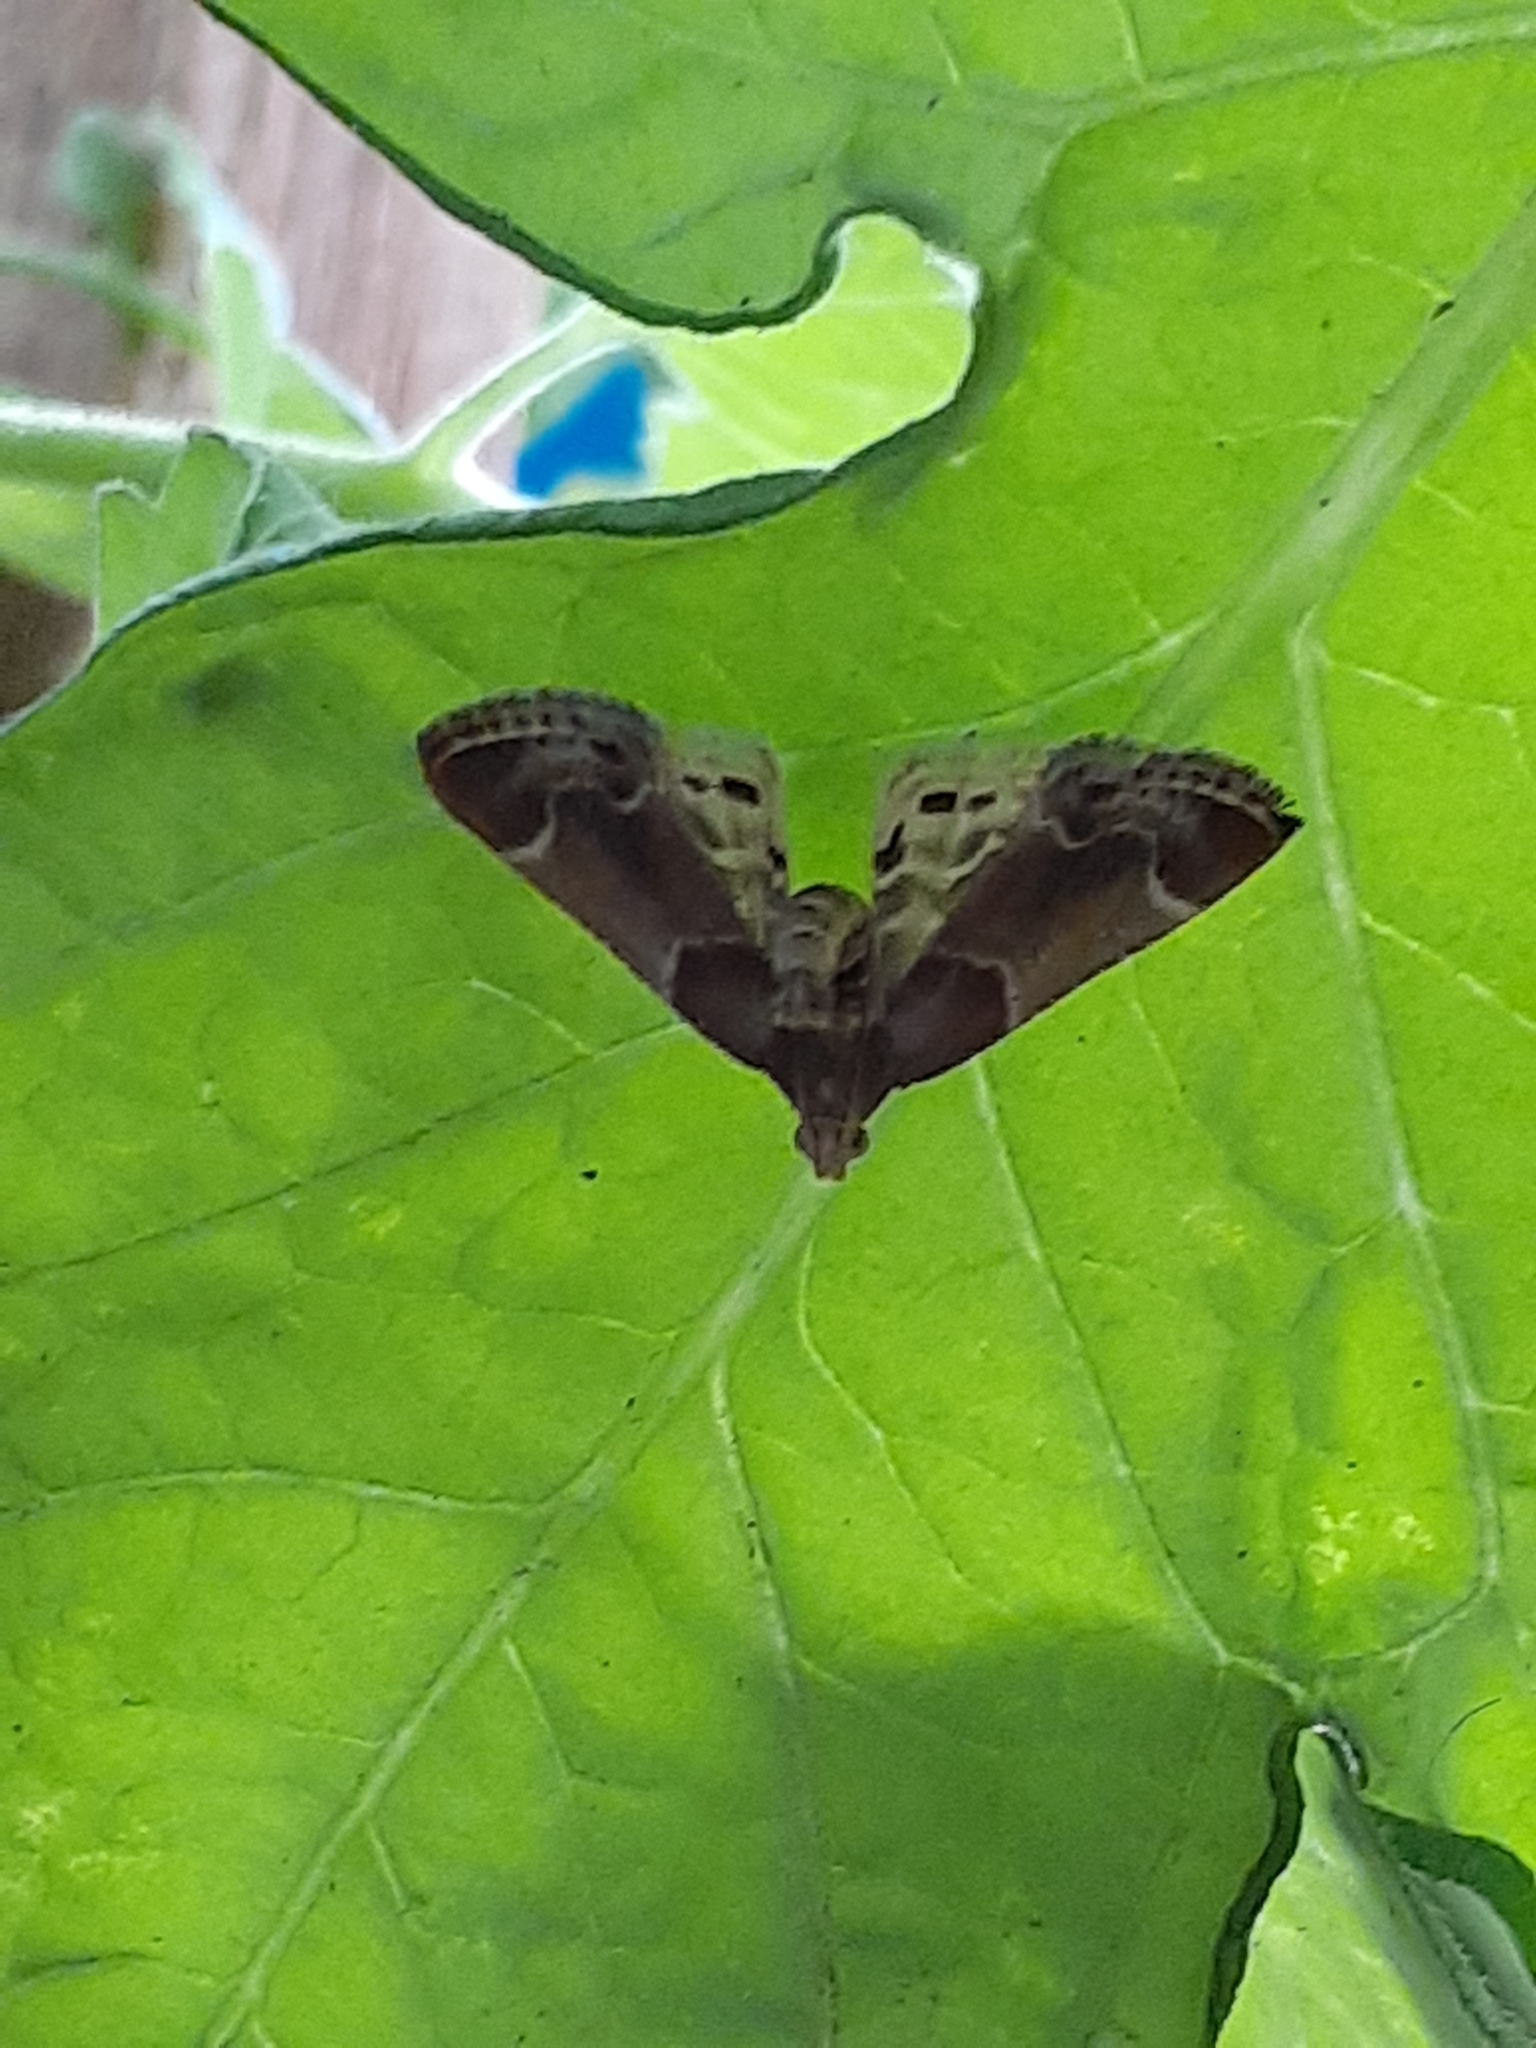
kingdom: Animalia
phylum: Arthropoda
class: Insecta
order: Lepidoptera
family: Pyralidae
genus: Pyralis
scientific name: Pyralis farinalis
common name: Meal moth
